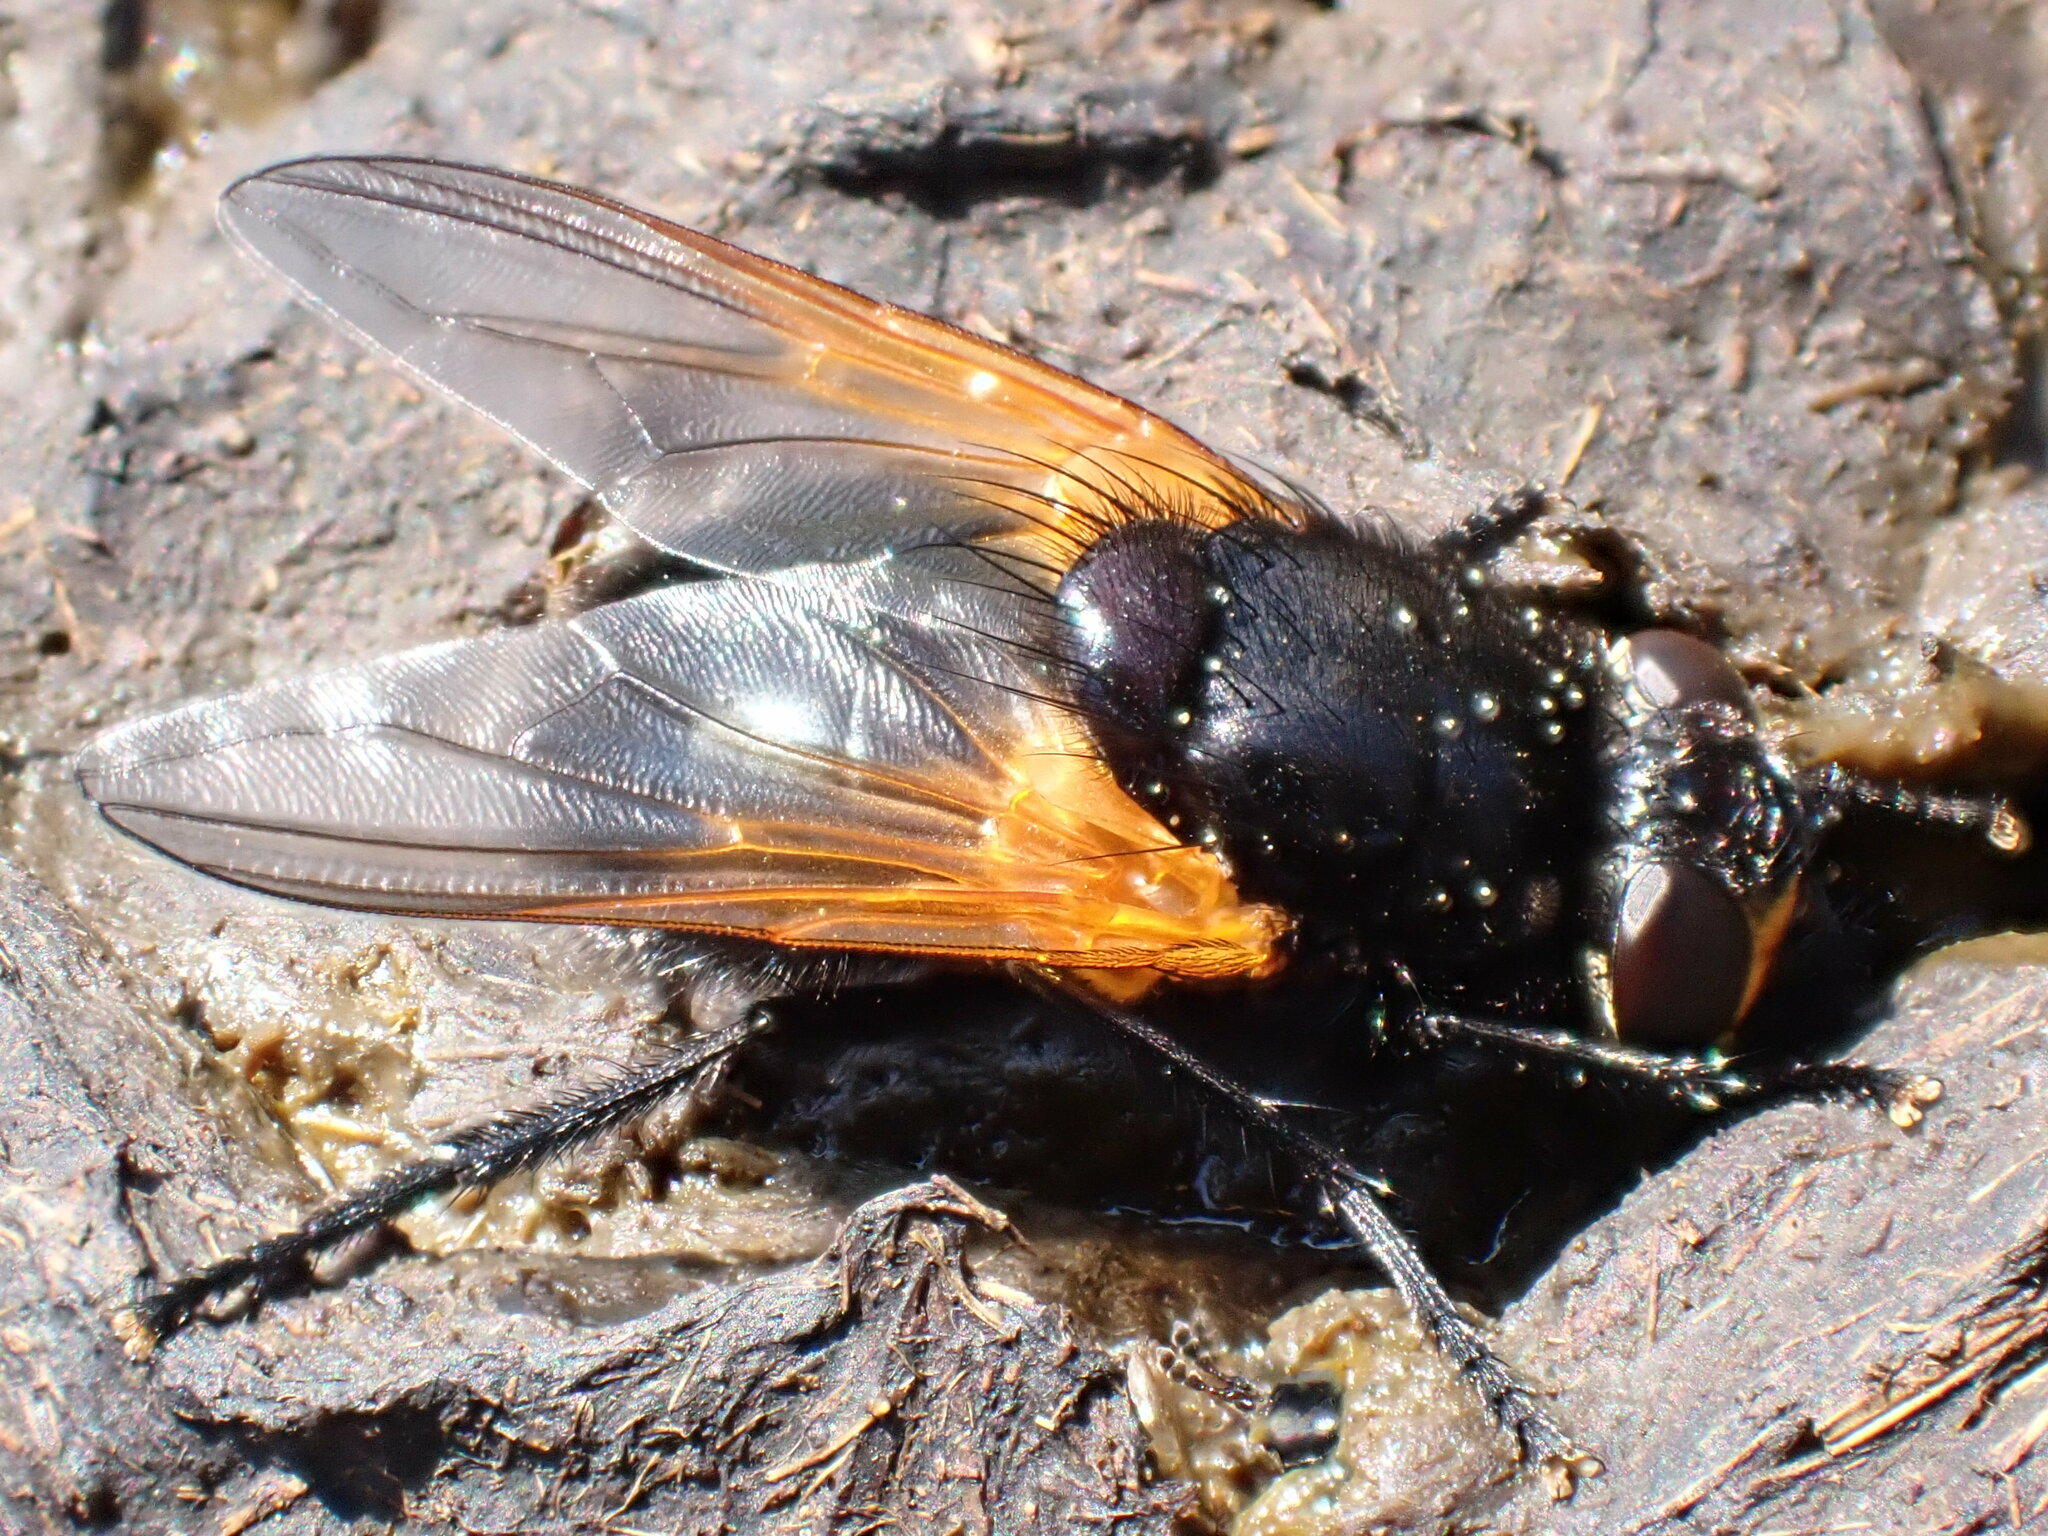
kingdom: Animalia
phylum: Arthropoda
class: Insecta
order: Diptera
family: Muscidae
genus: Mesembrina
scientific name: Mesembrina meridiana
